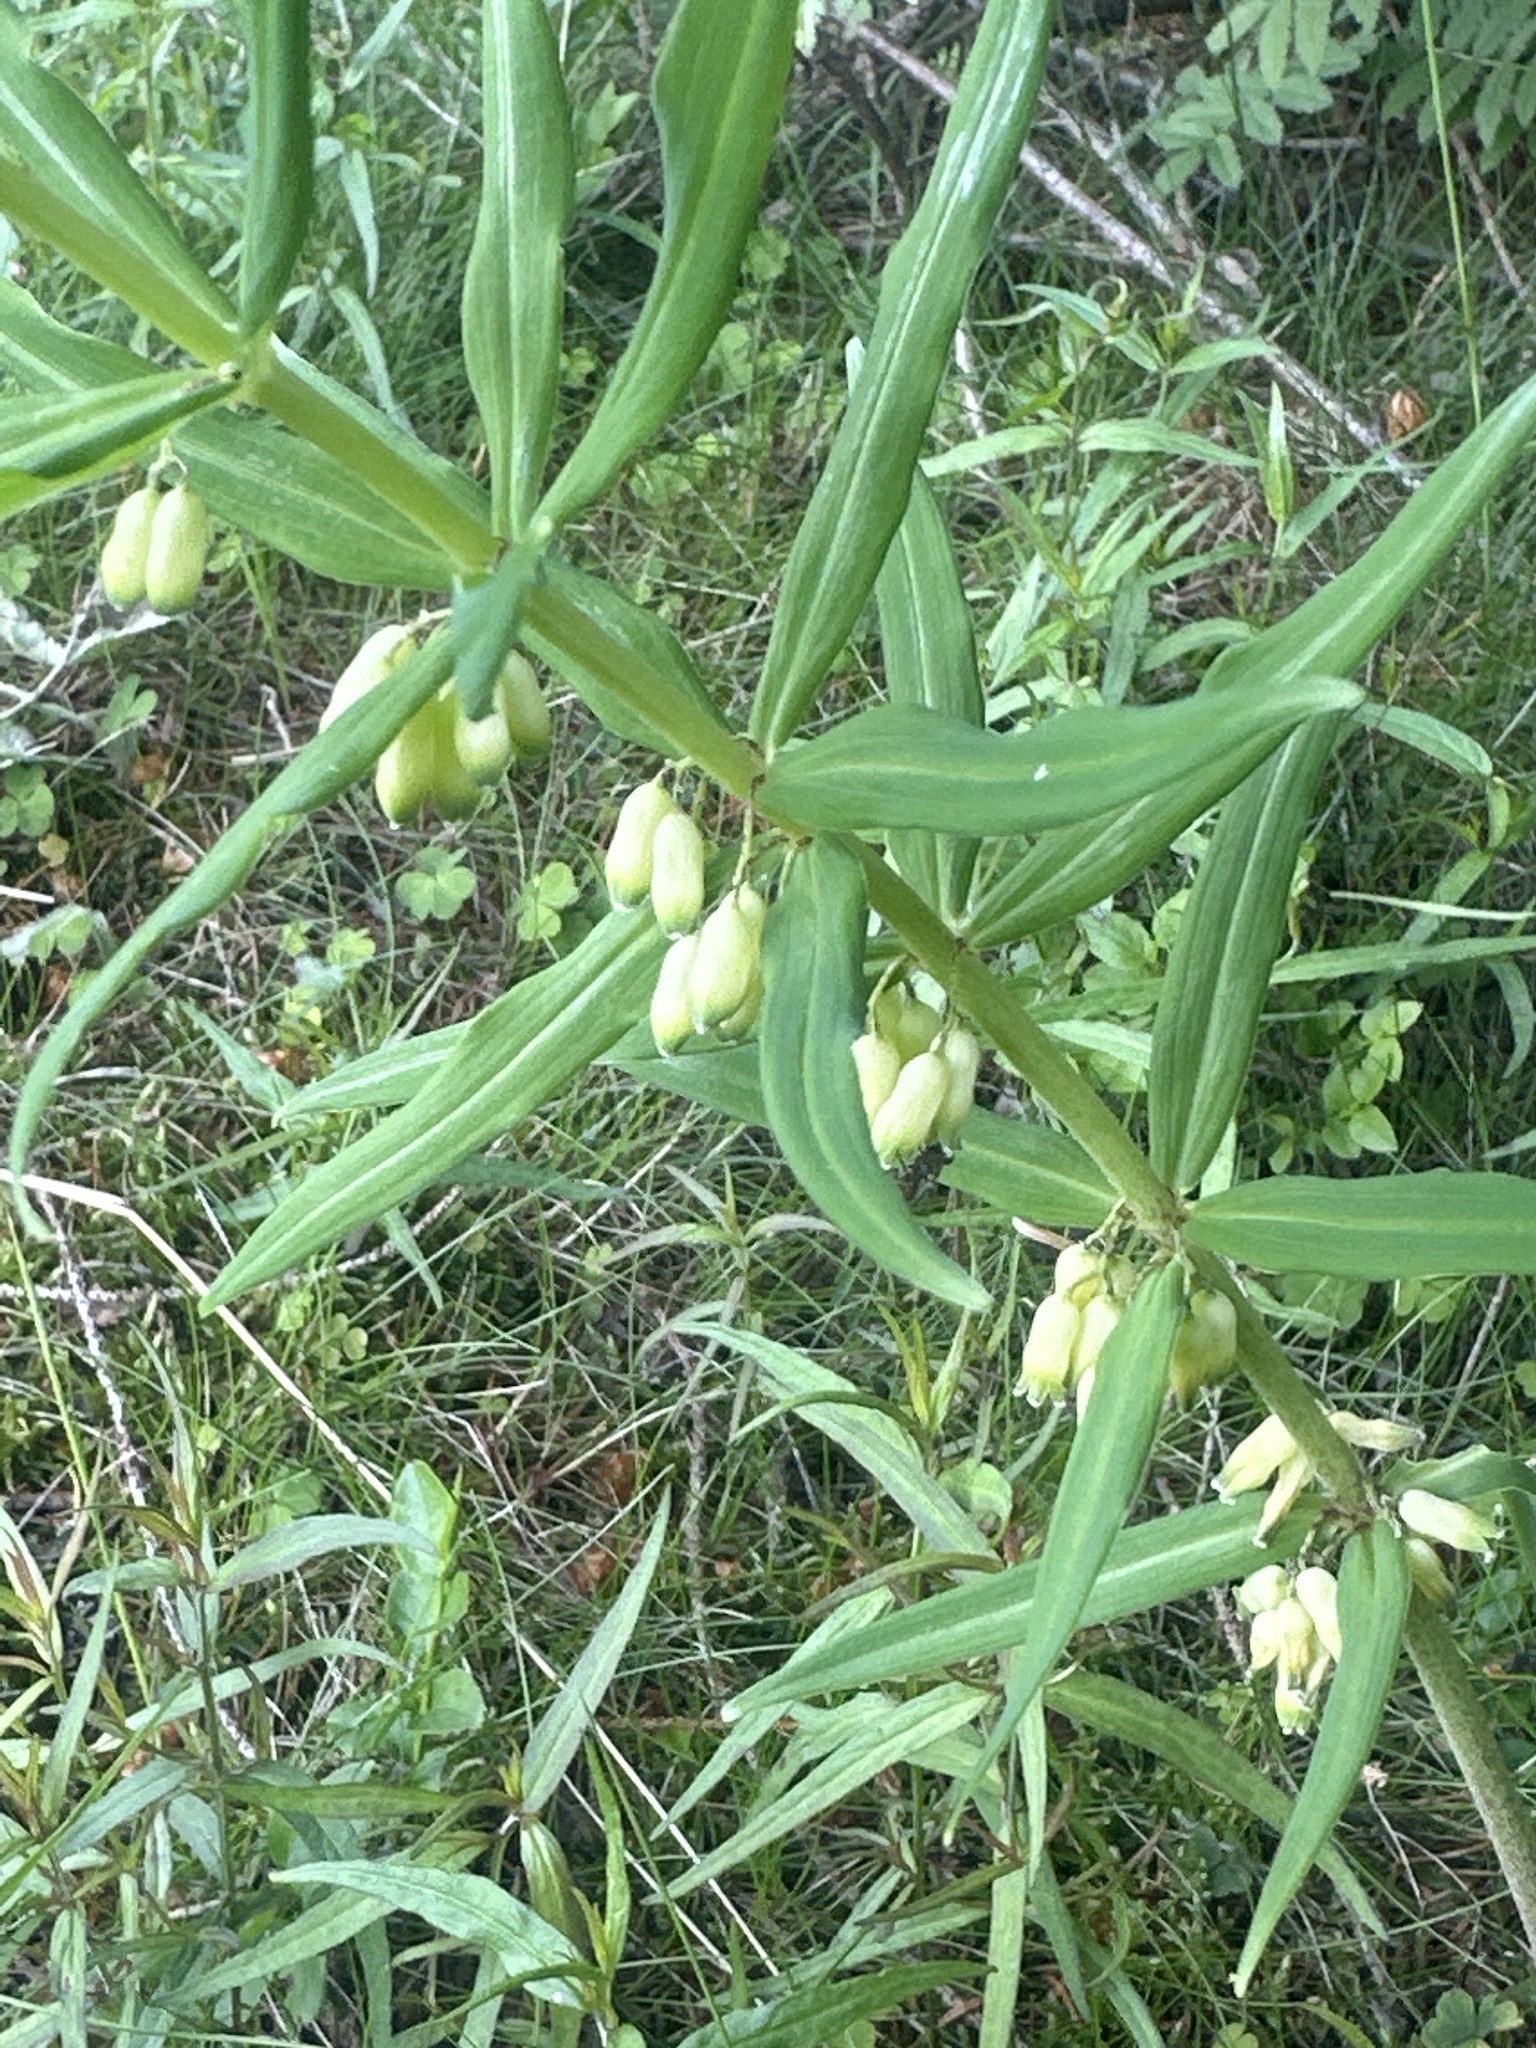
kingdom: Plantae
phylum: Tracheophyta
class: Liliopsida
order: Asparagales
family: Asparagaceae
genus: Polygonatum
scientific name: Polygonatum verticillatum
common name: Whorled solomon's-seal
